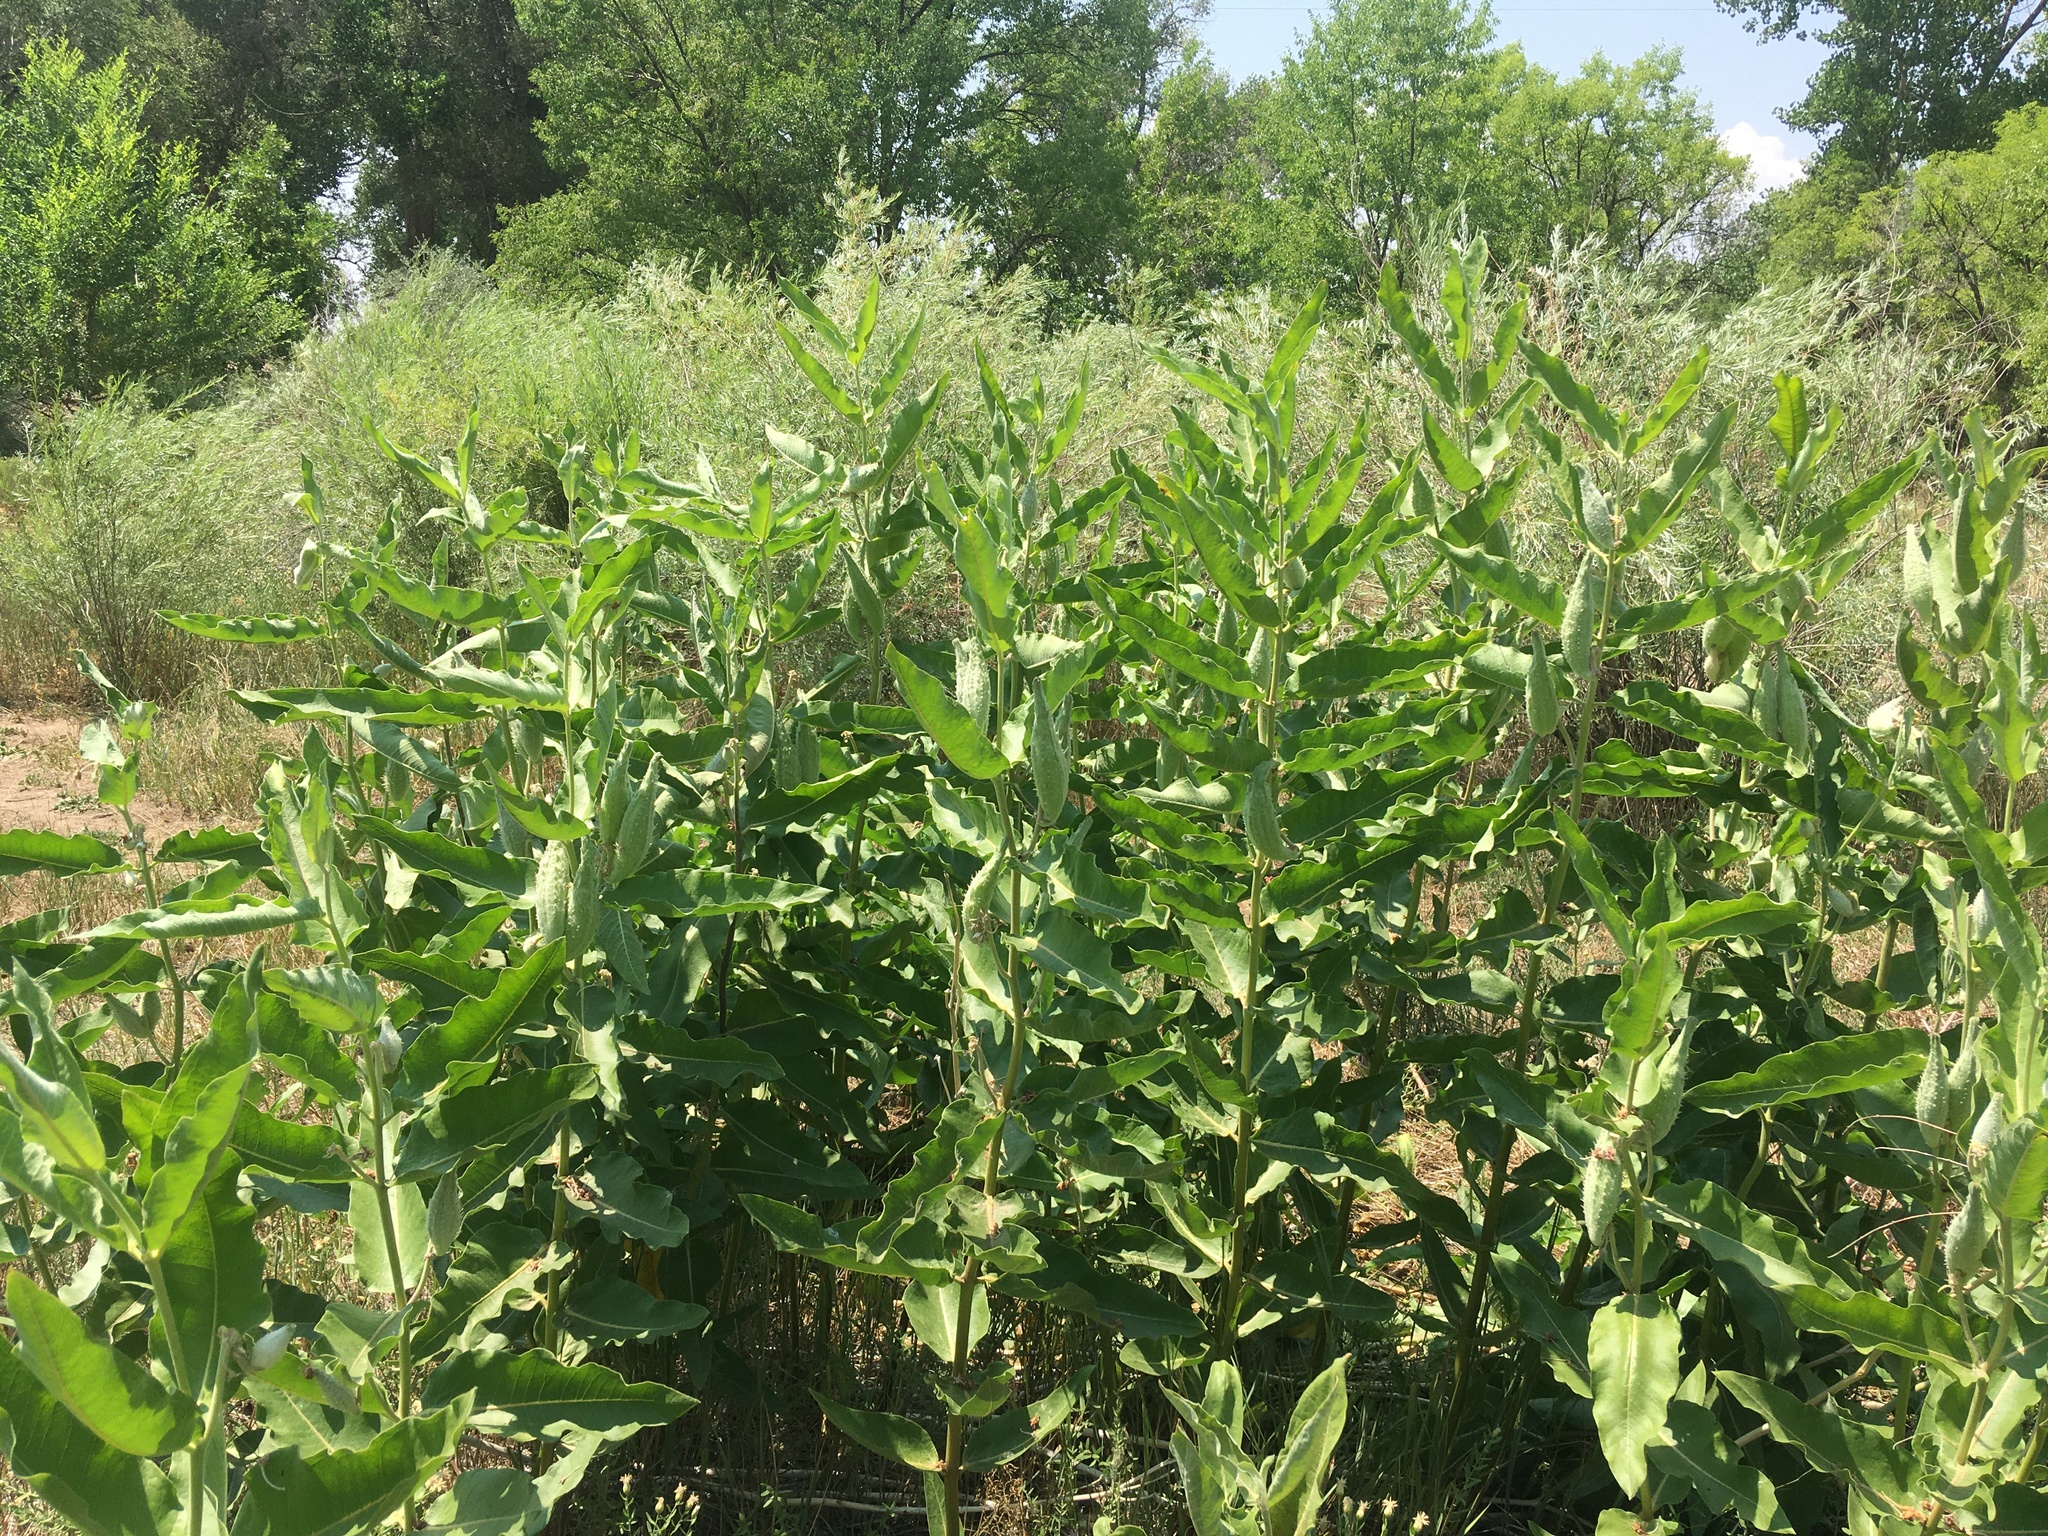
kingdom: Plantae
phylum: Tracheophyta
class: Magnoliopsida
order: Gentianales
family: Apocynaceae
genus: Asclepias
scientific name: Asclepias speciosa
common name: Showy milkweed
